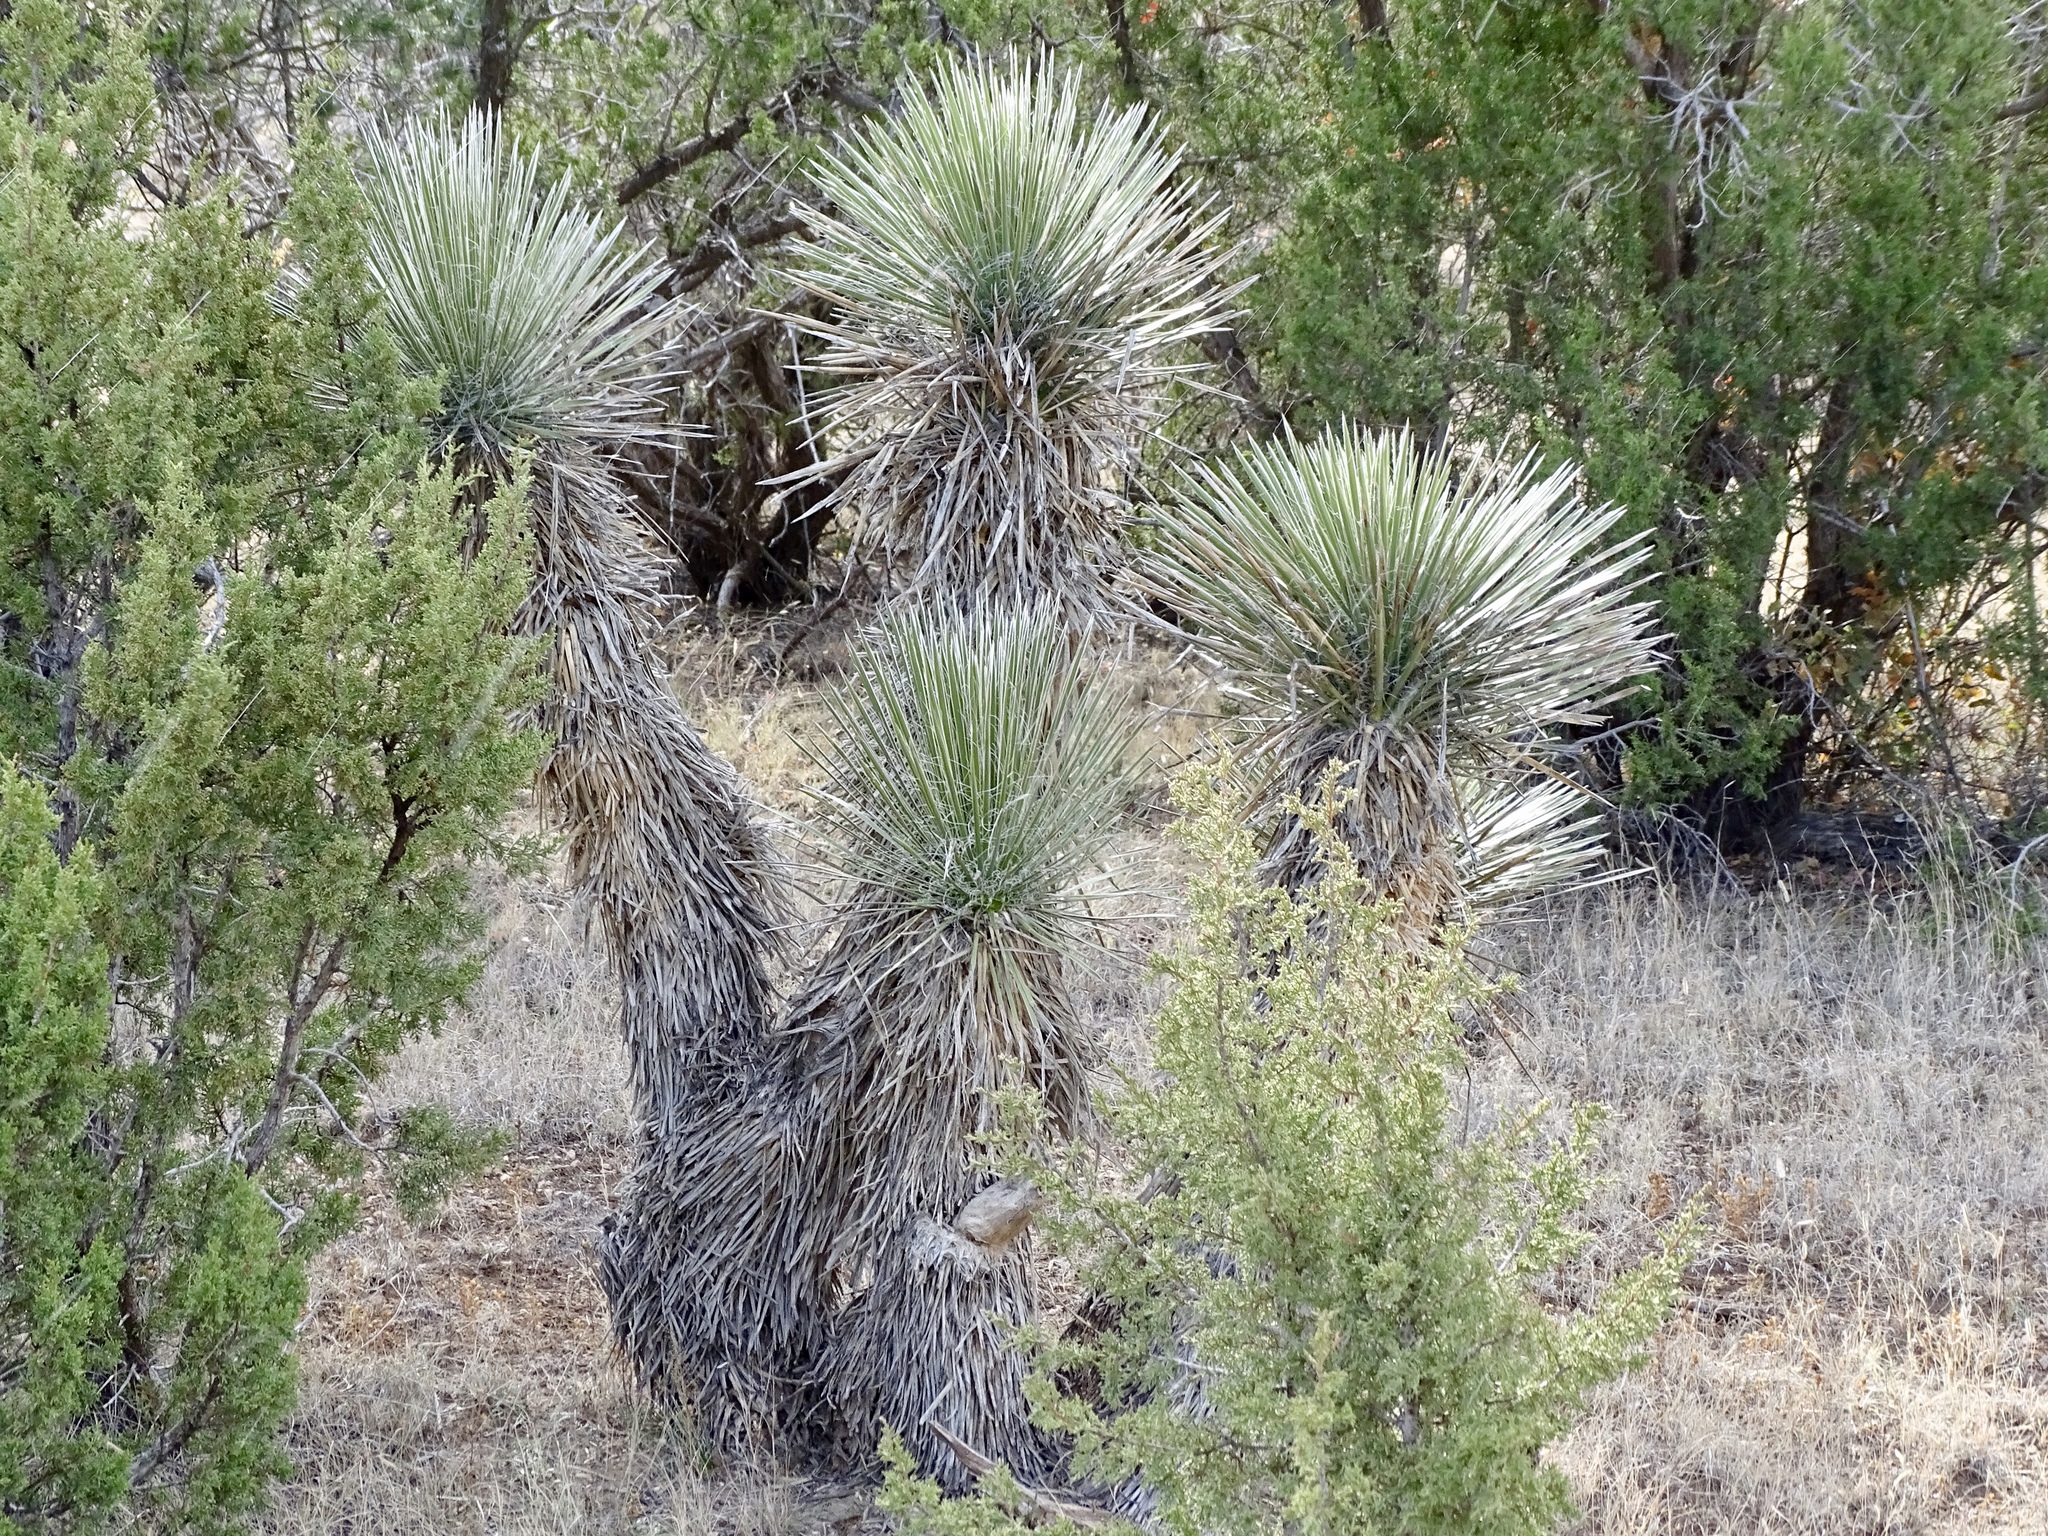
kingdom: Plantae
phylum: Tracheophyta
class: Liliopsida
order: Asparagales
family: Asparagaceae
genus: Yucca
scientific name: Yucca elata
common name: Palmella
